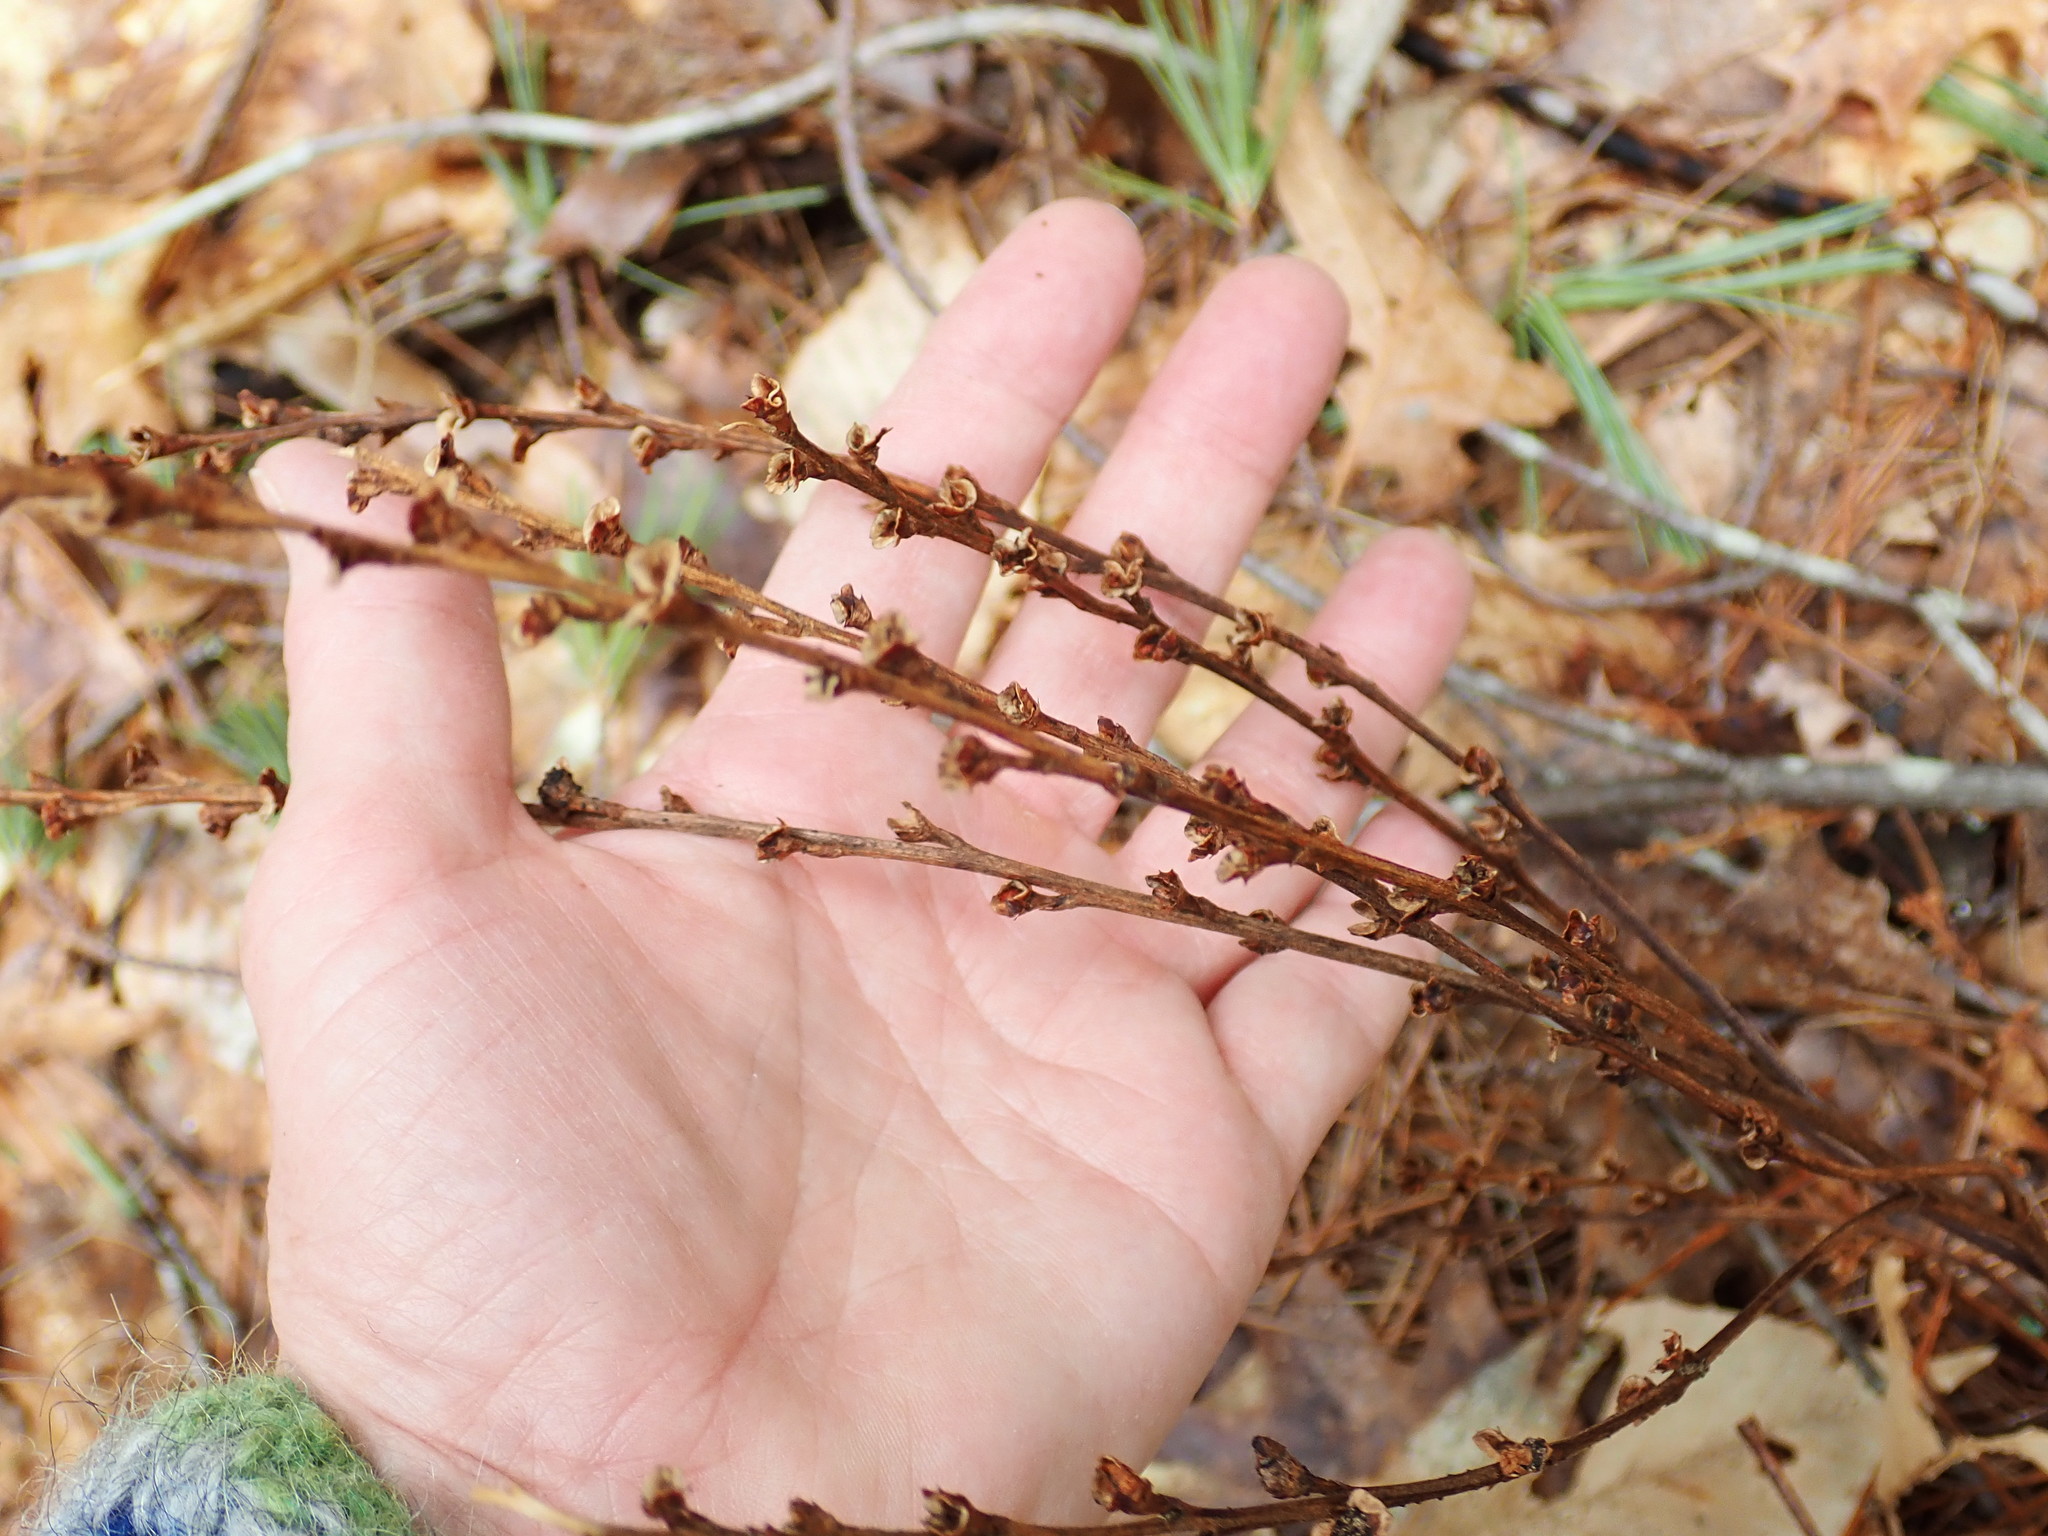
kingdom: Plantae
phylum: Tracheophyta
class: Magnoliopsida
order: Lamiales
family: Orobanchaceae
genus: Epifagus
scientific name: Epifagus virginiana
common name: Beechdrops
